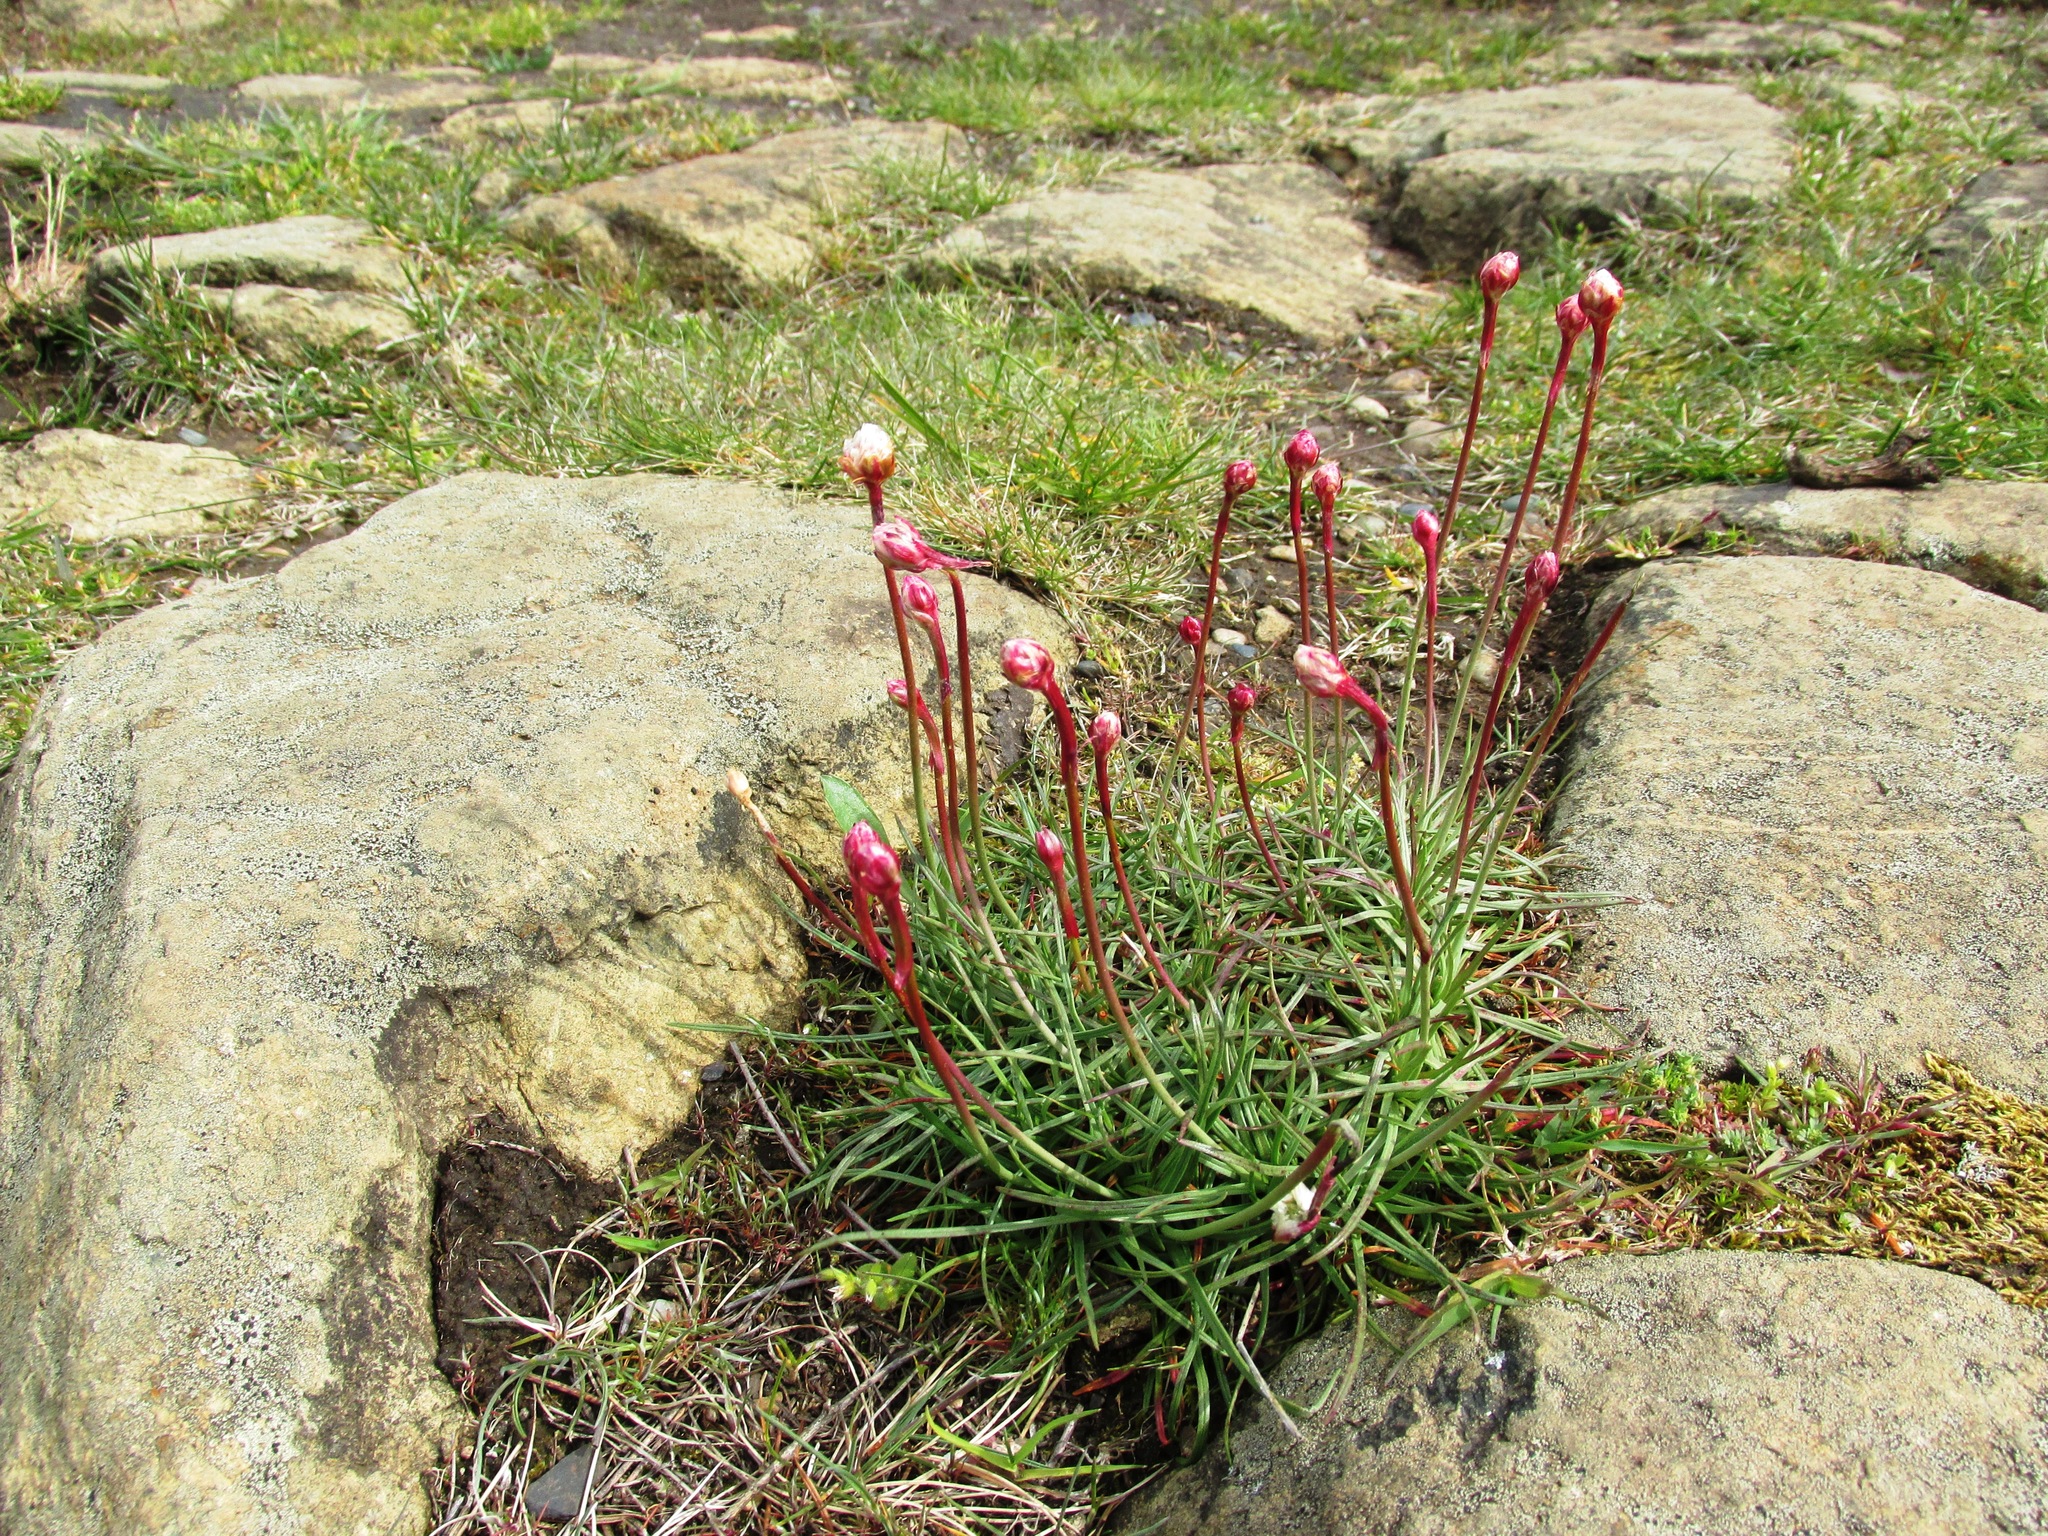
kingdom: Plantae
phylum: Tracheophyta
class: Magnoliopsida
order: Caryophyllales
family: Plumbaginaceae
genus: Armeria
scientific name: Armeria maritima
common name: Thrift
